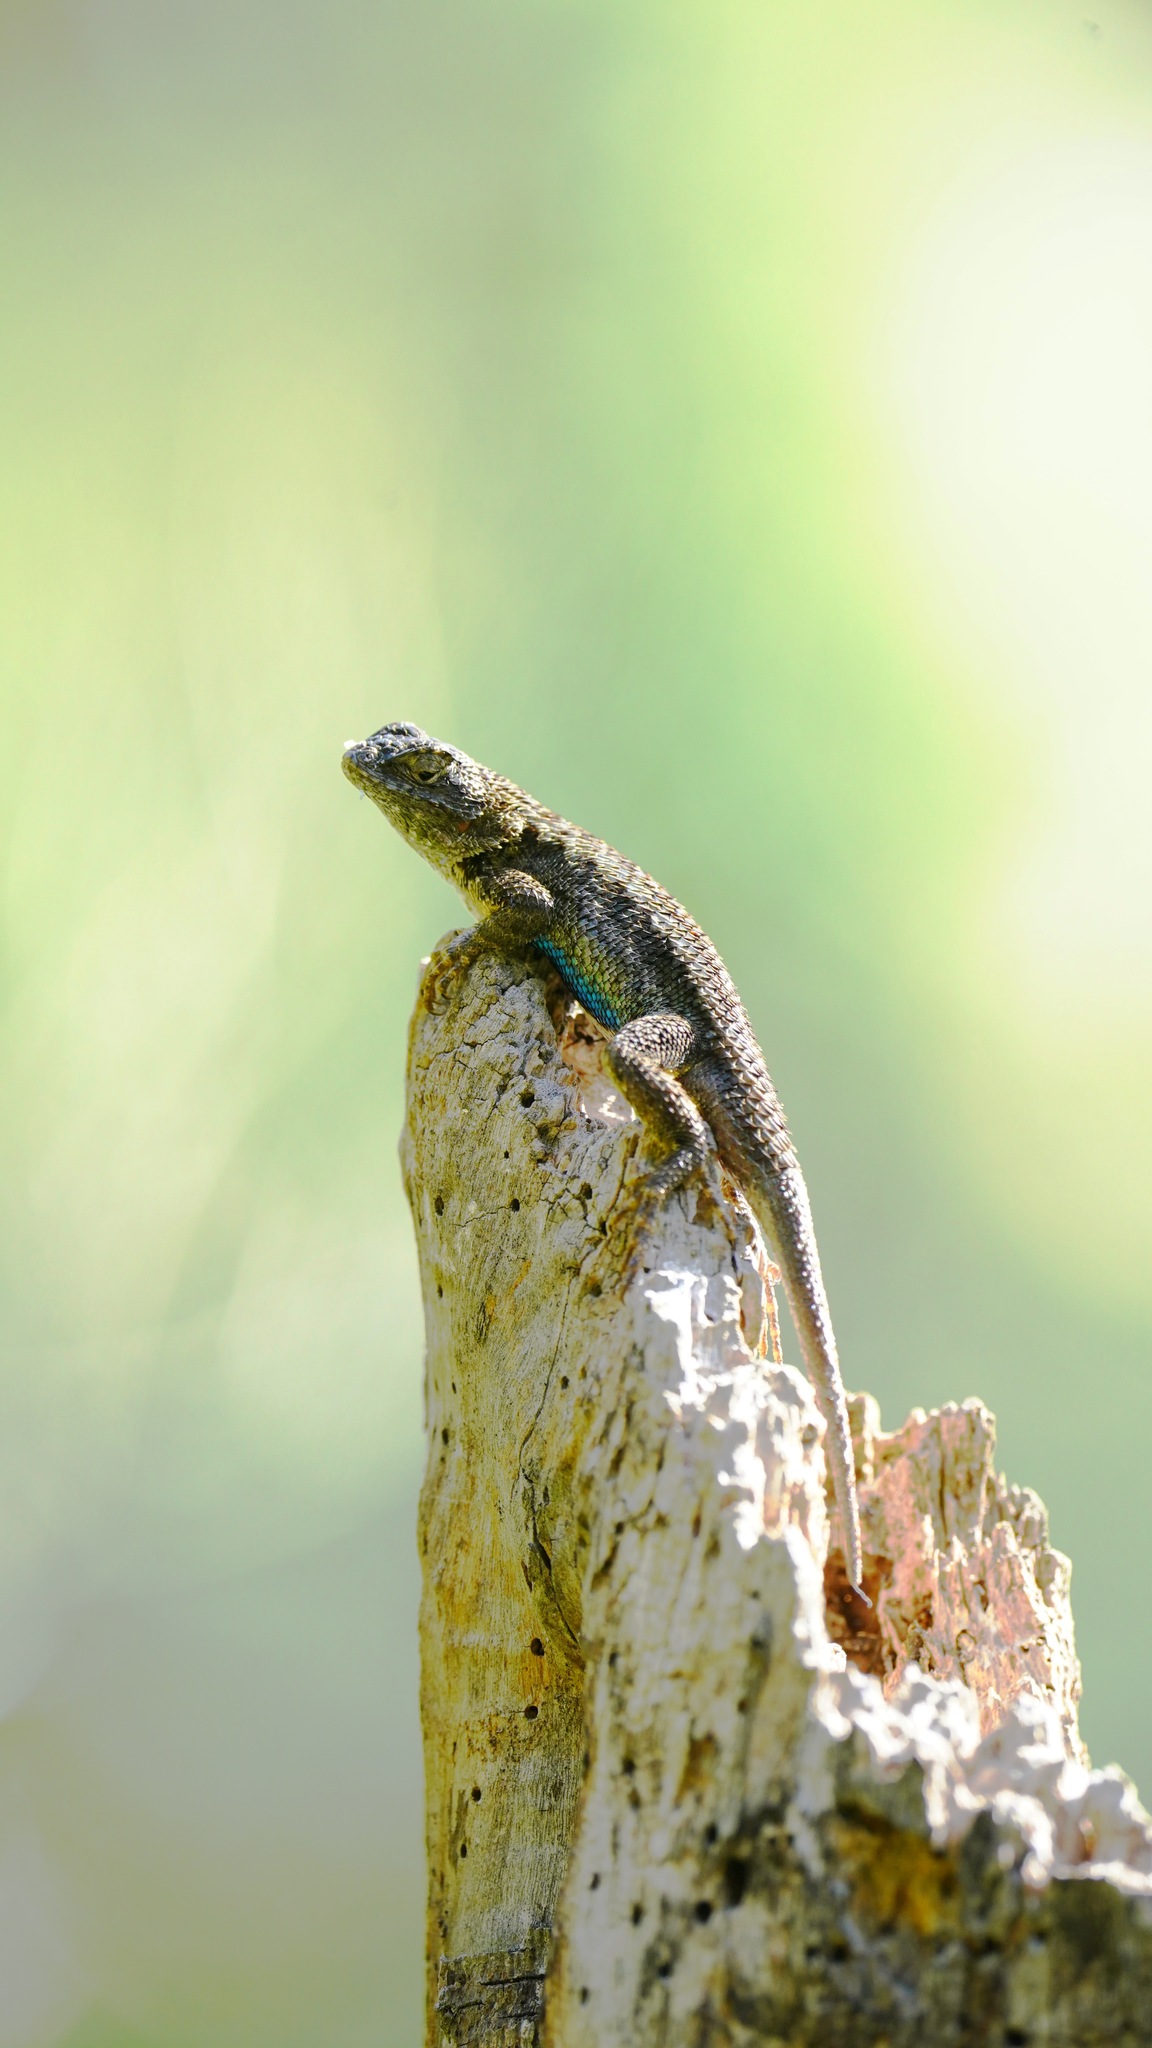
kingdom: Animalia
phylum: Chordata
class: Squamata
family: Phrynosomatidae
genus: Sceloporus
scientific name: Sceloporus occidentalis
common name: Western fence lizard
